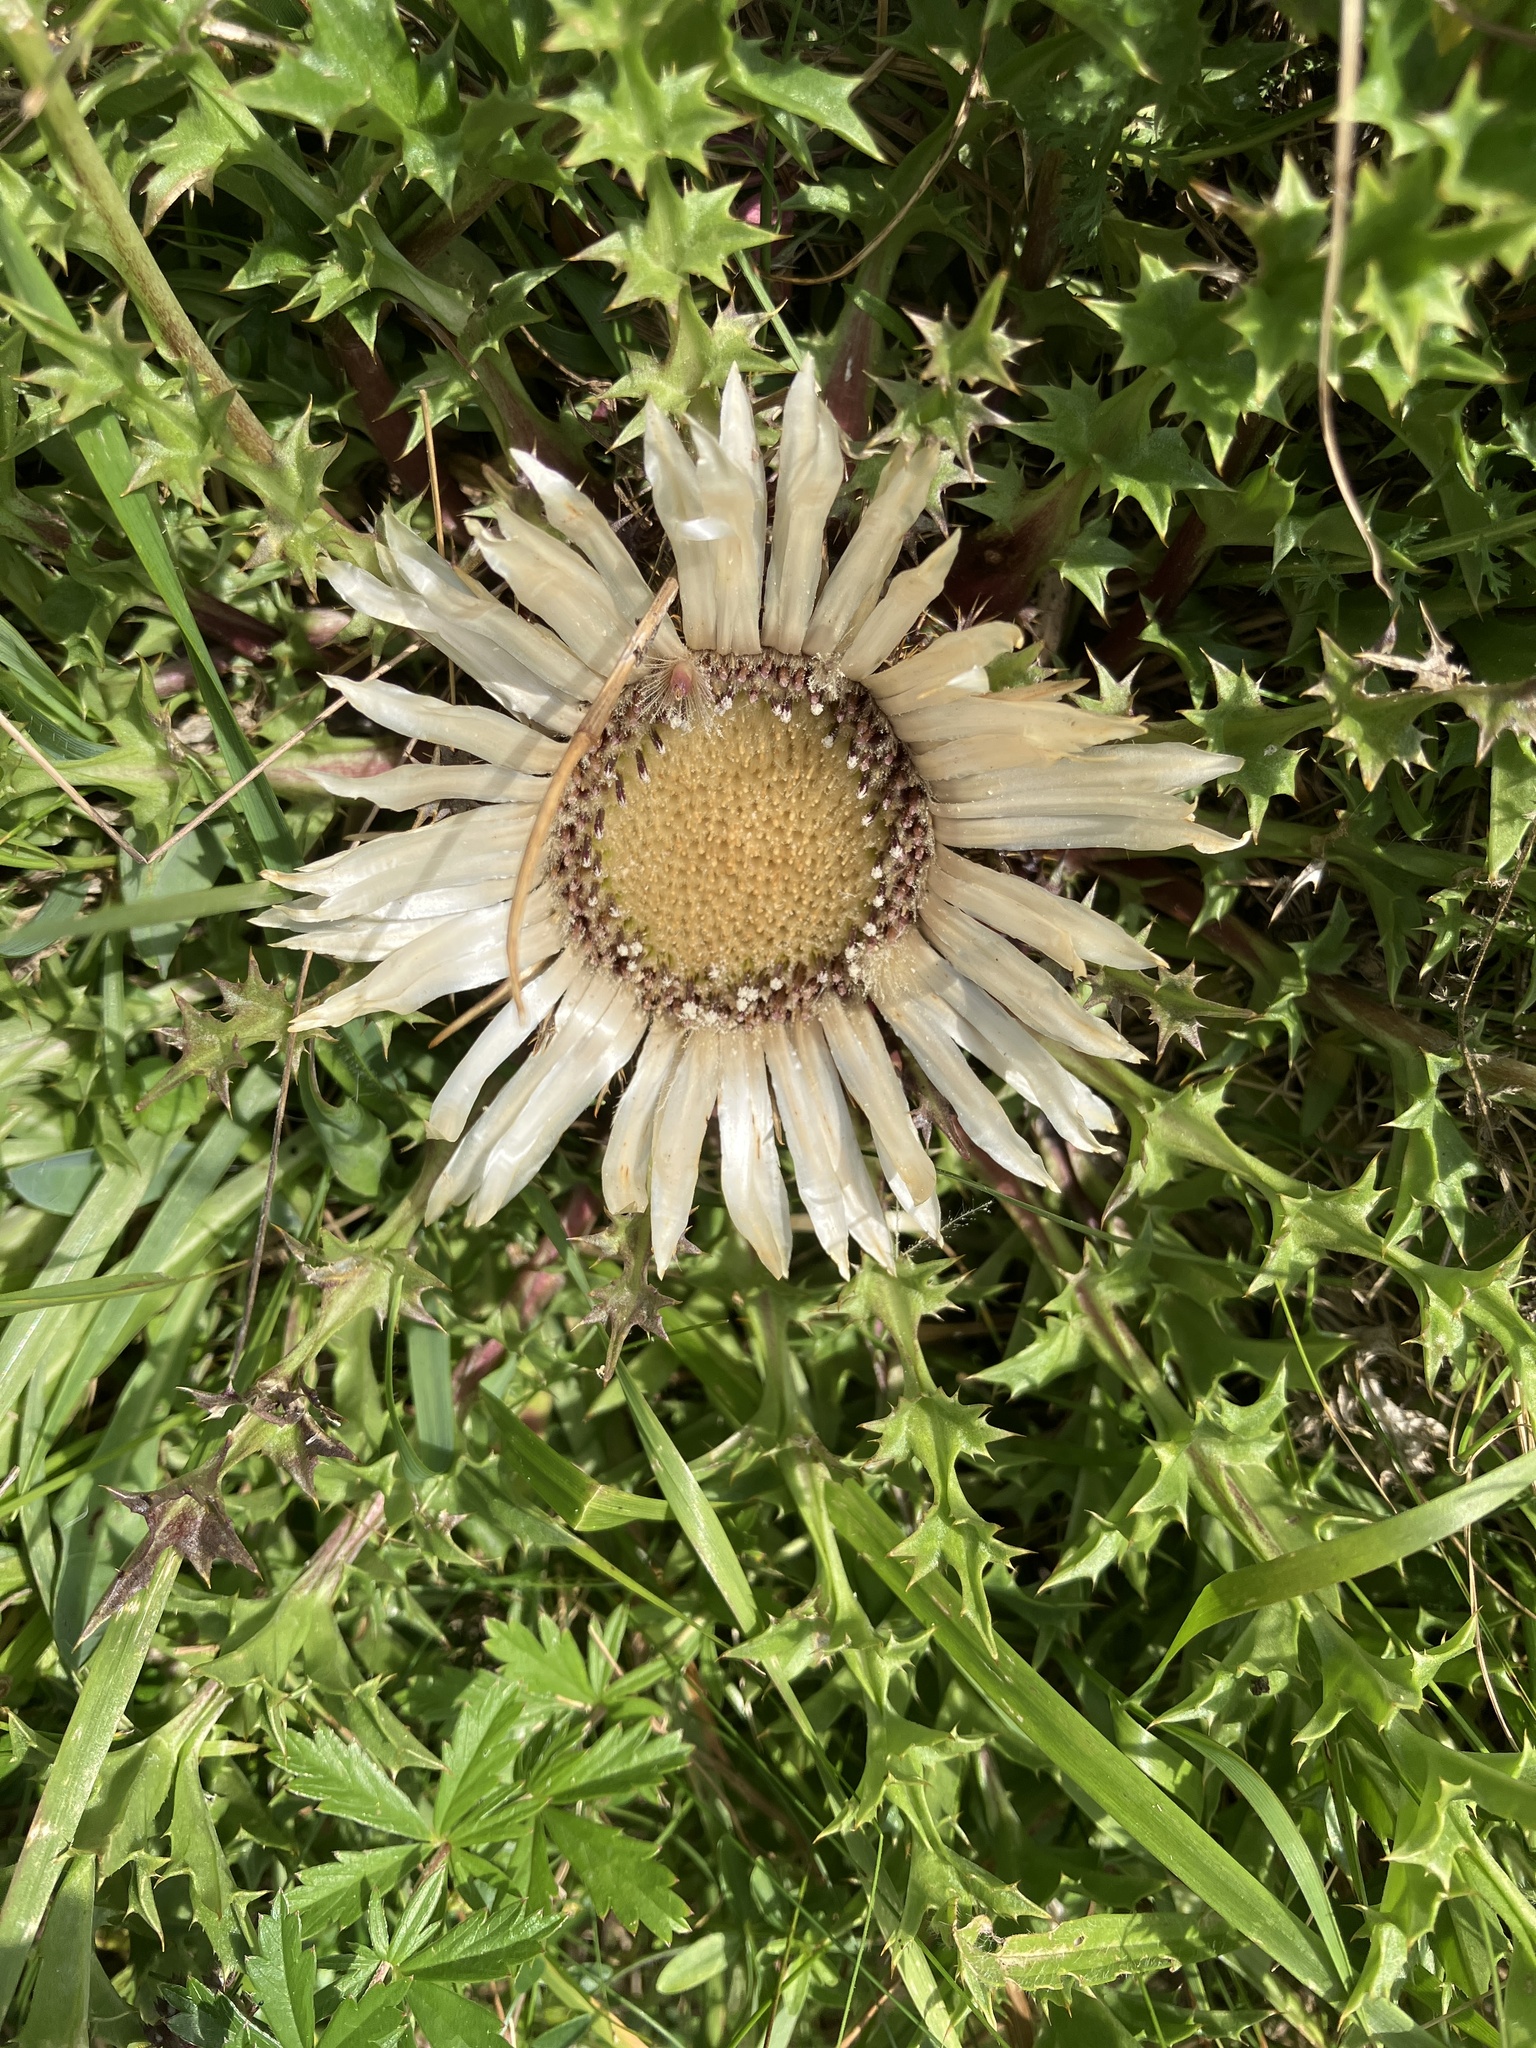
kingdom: Plantae
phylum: Tracheophyta
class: Magnoliopsida
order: Asterales
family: Asteraceae
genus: Carlina
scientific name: Carlina acaulis
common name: Stemless carline thistle
